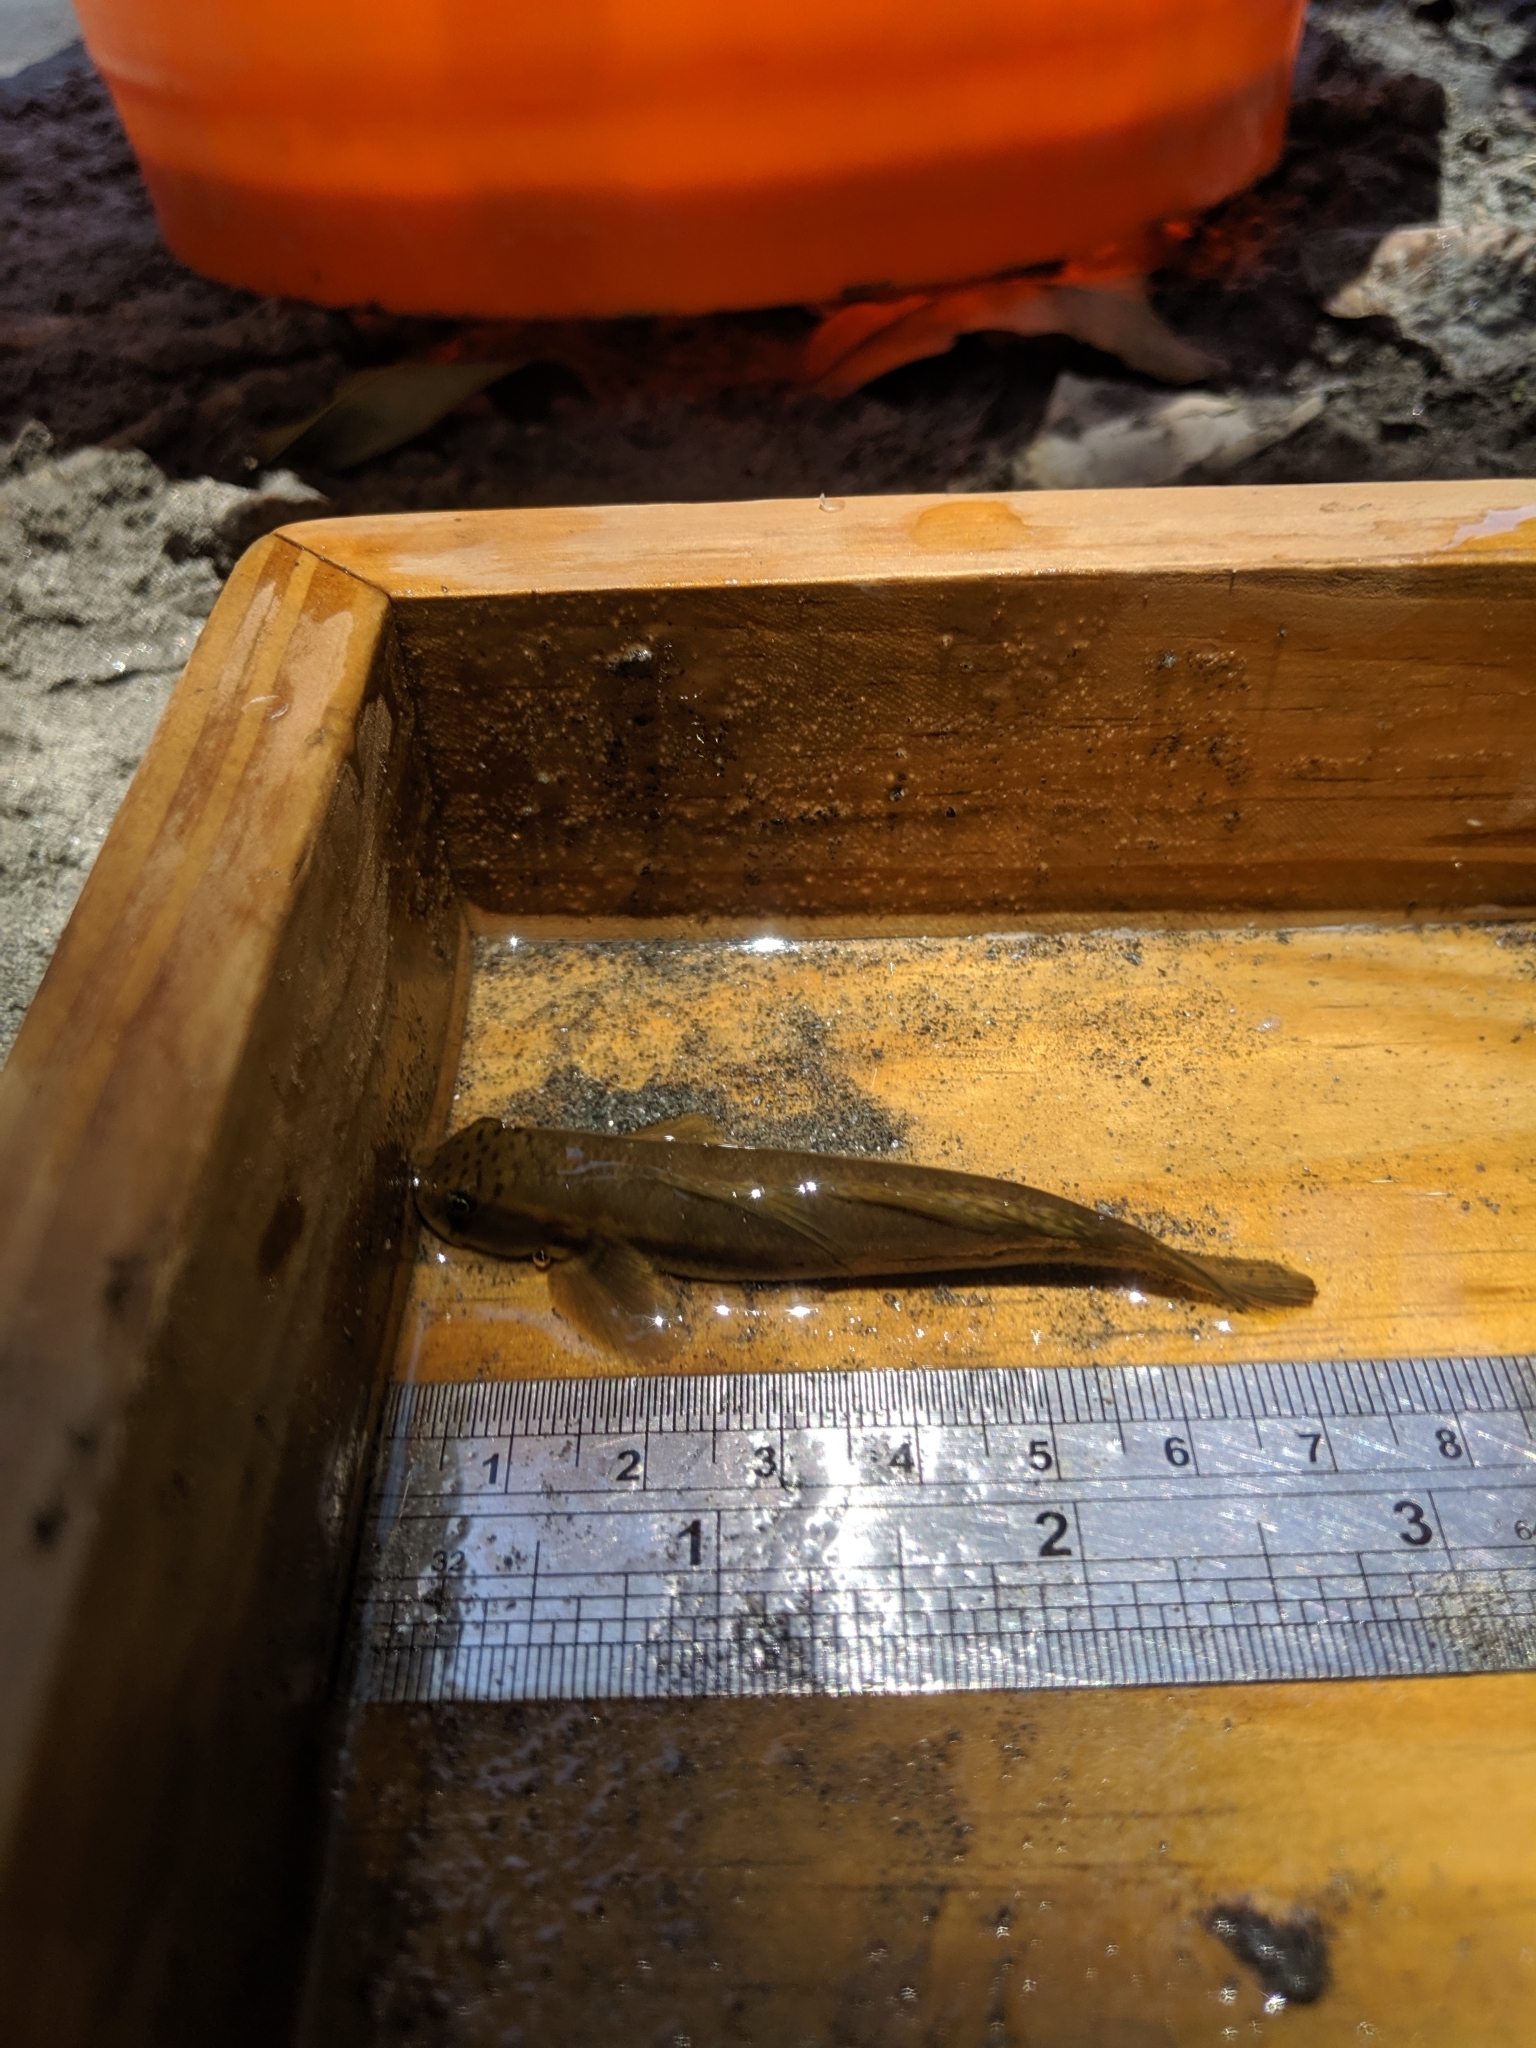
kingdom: Animalia
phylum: Chordata
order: Perciformes
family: Gobiidae
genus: Sicyopterus
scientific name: Sicyopterus japonicus
